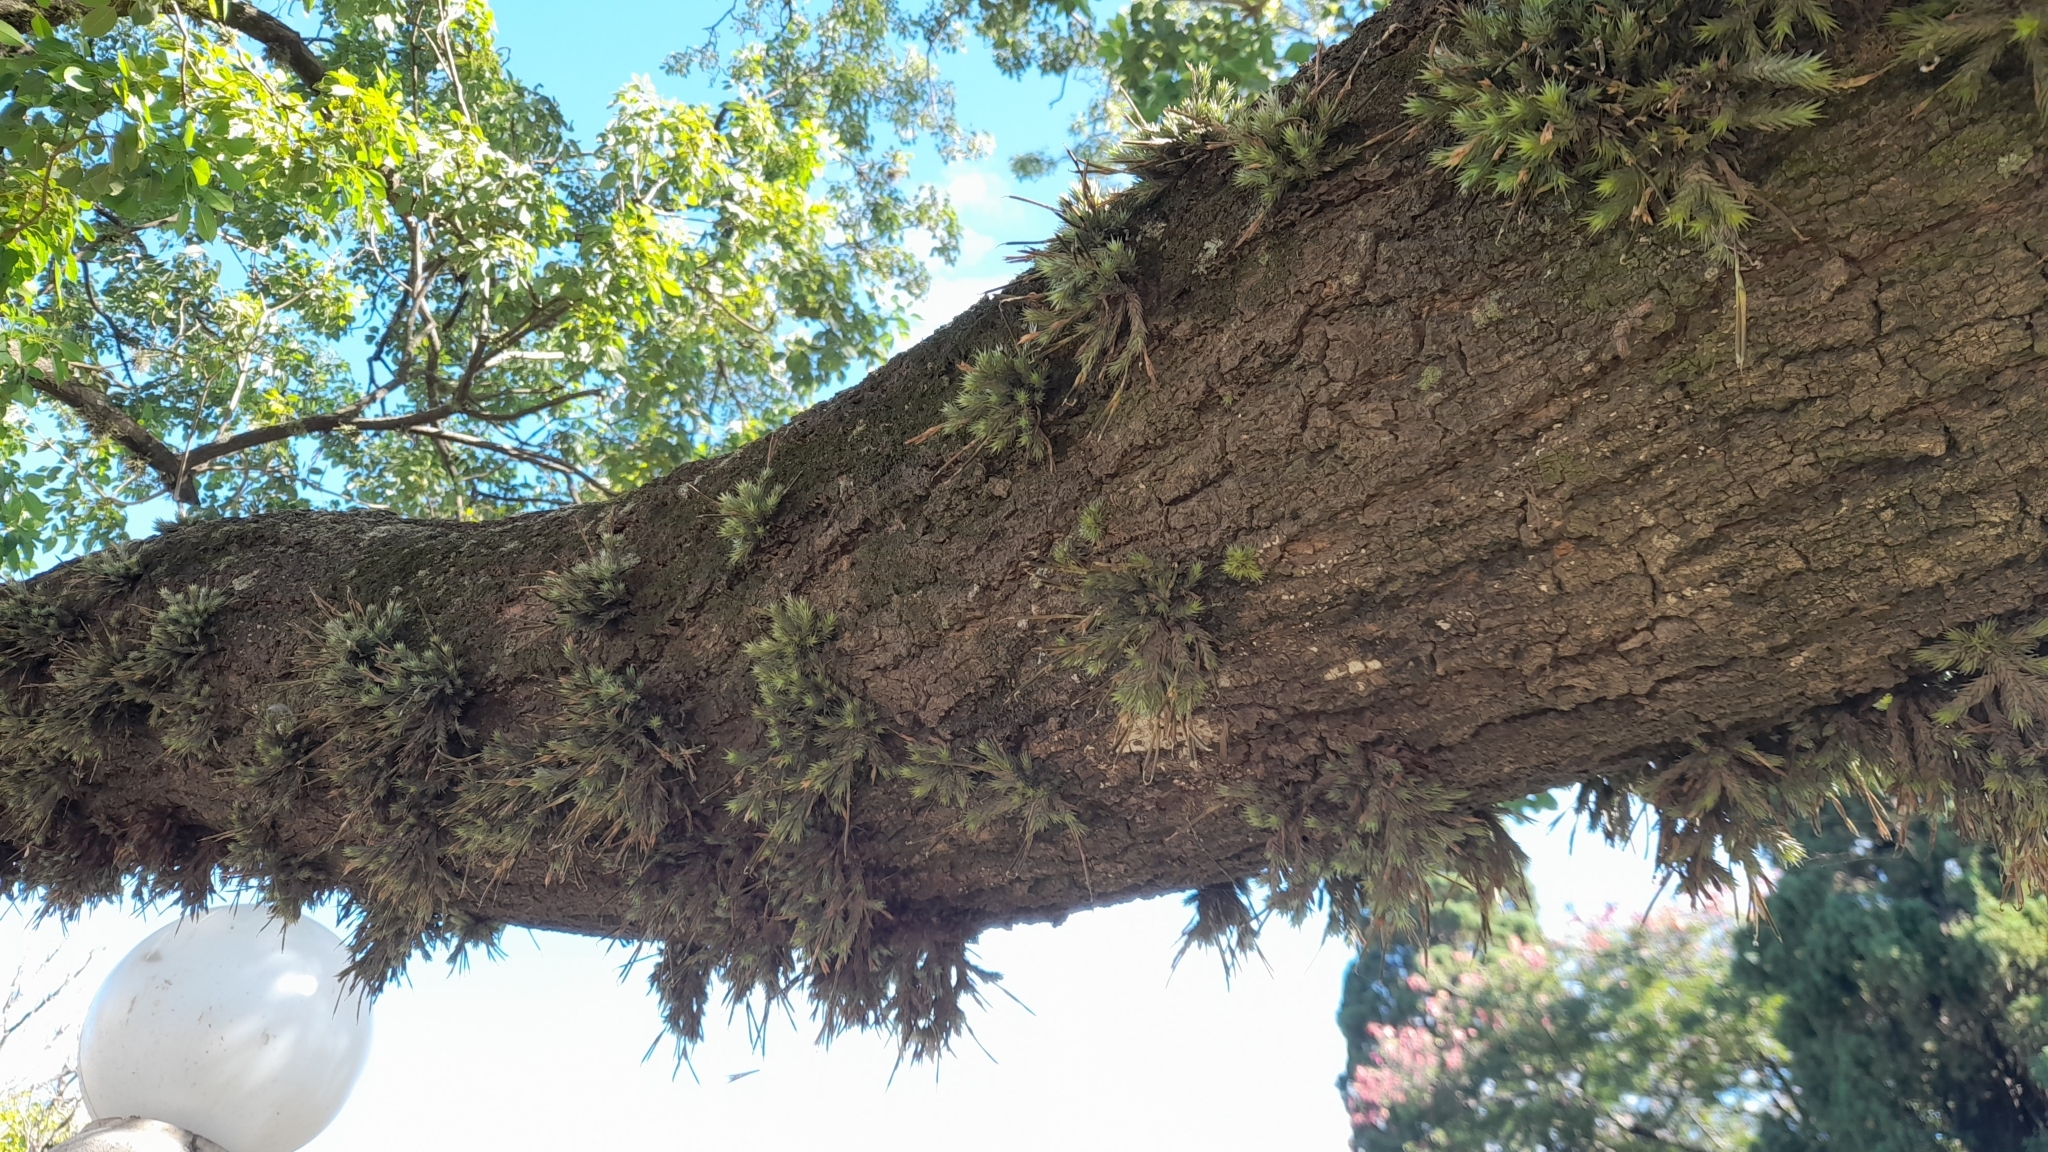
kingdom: Plantae
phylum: Tracheophyta
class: Liliopsida
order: Poales
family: Bromeliaceae
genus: Tillandsia
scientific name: Tillandsia tricholepis
